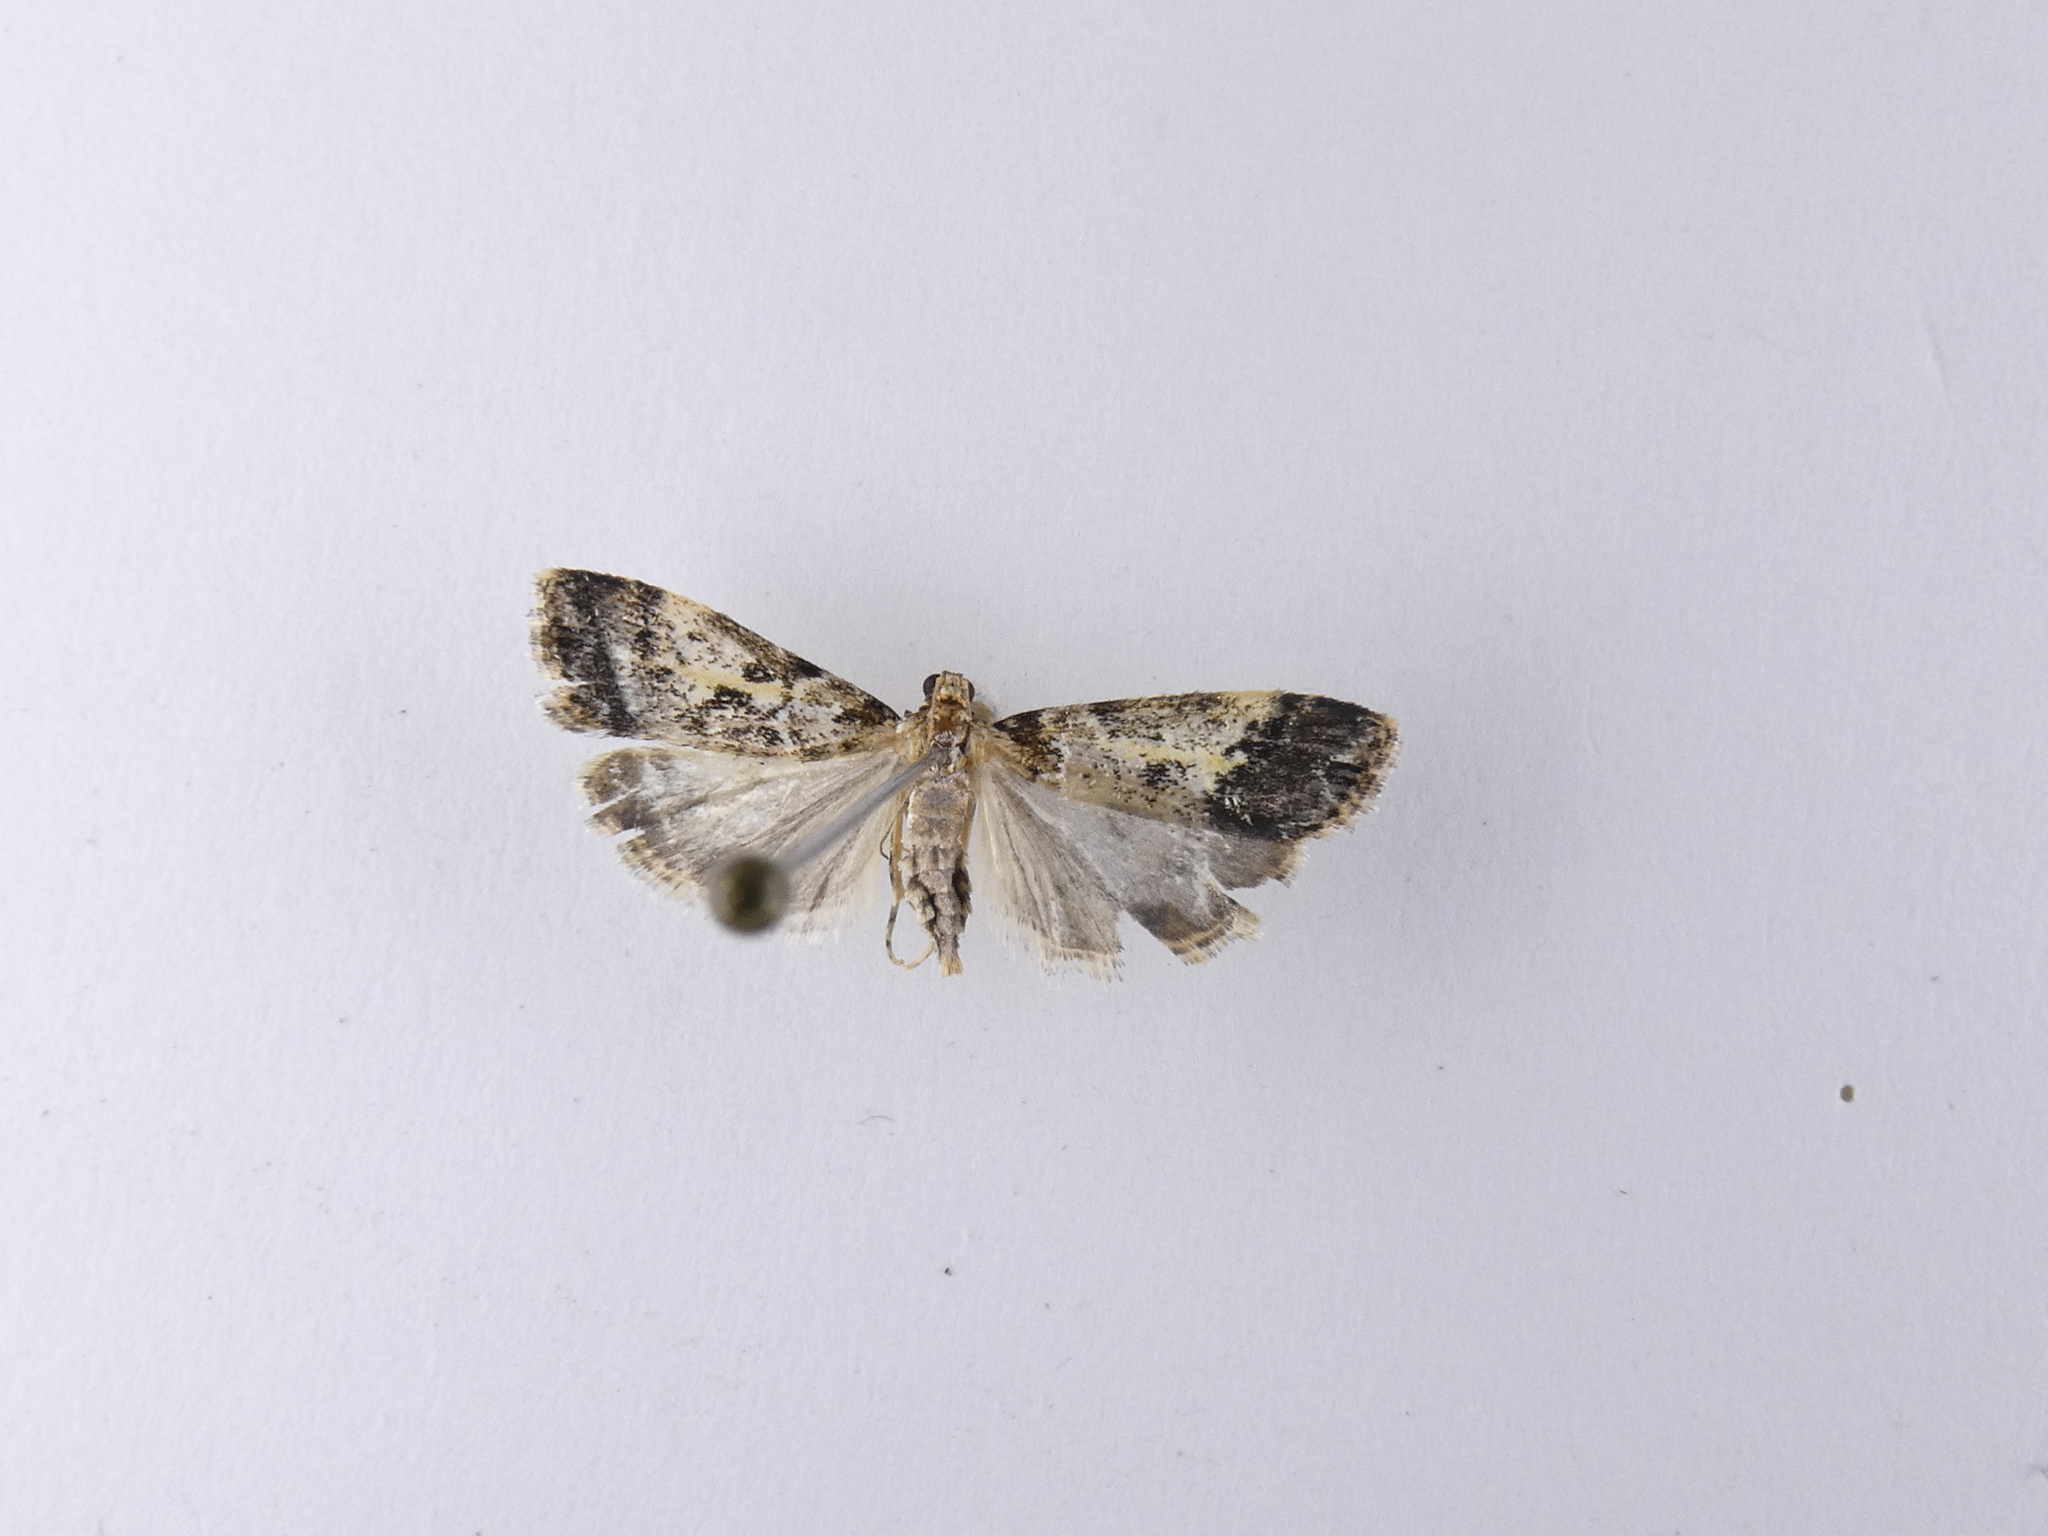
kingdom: Animalia
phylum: Arthropoda
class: Insecta
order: Lepidoptera
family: Crambidae
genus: Eudonia
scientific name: Eudonia characta
